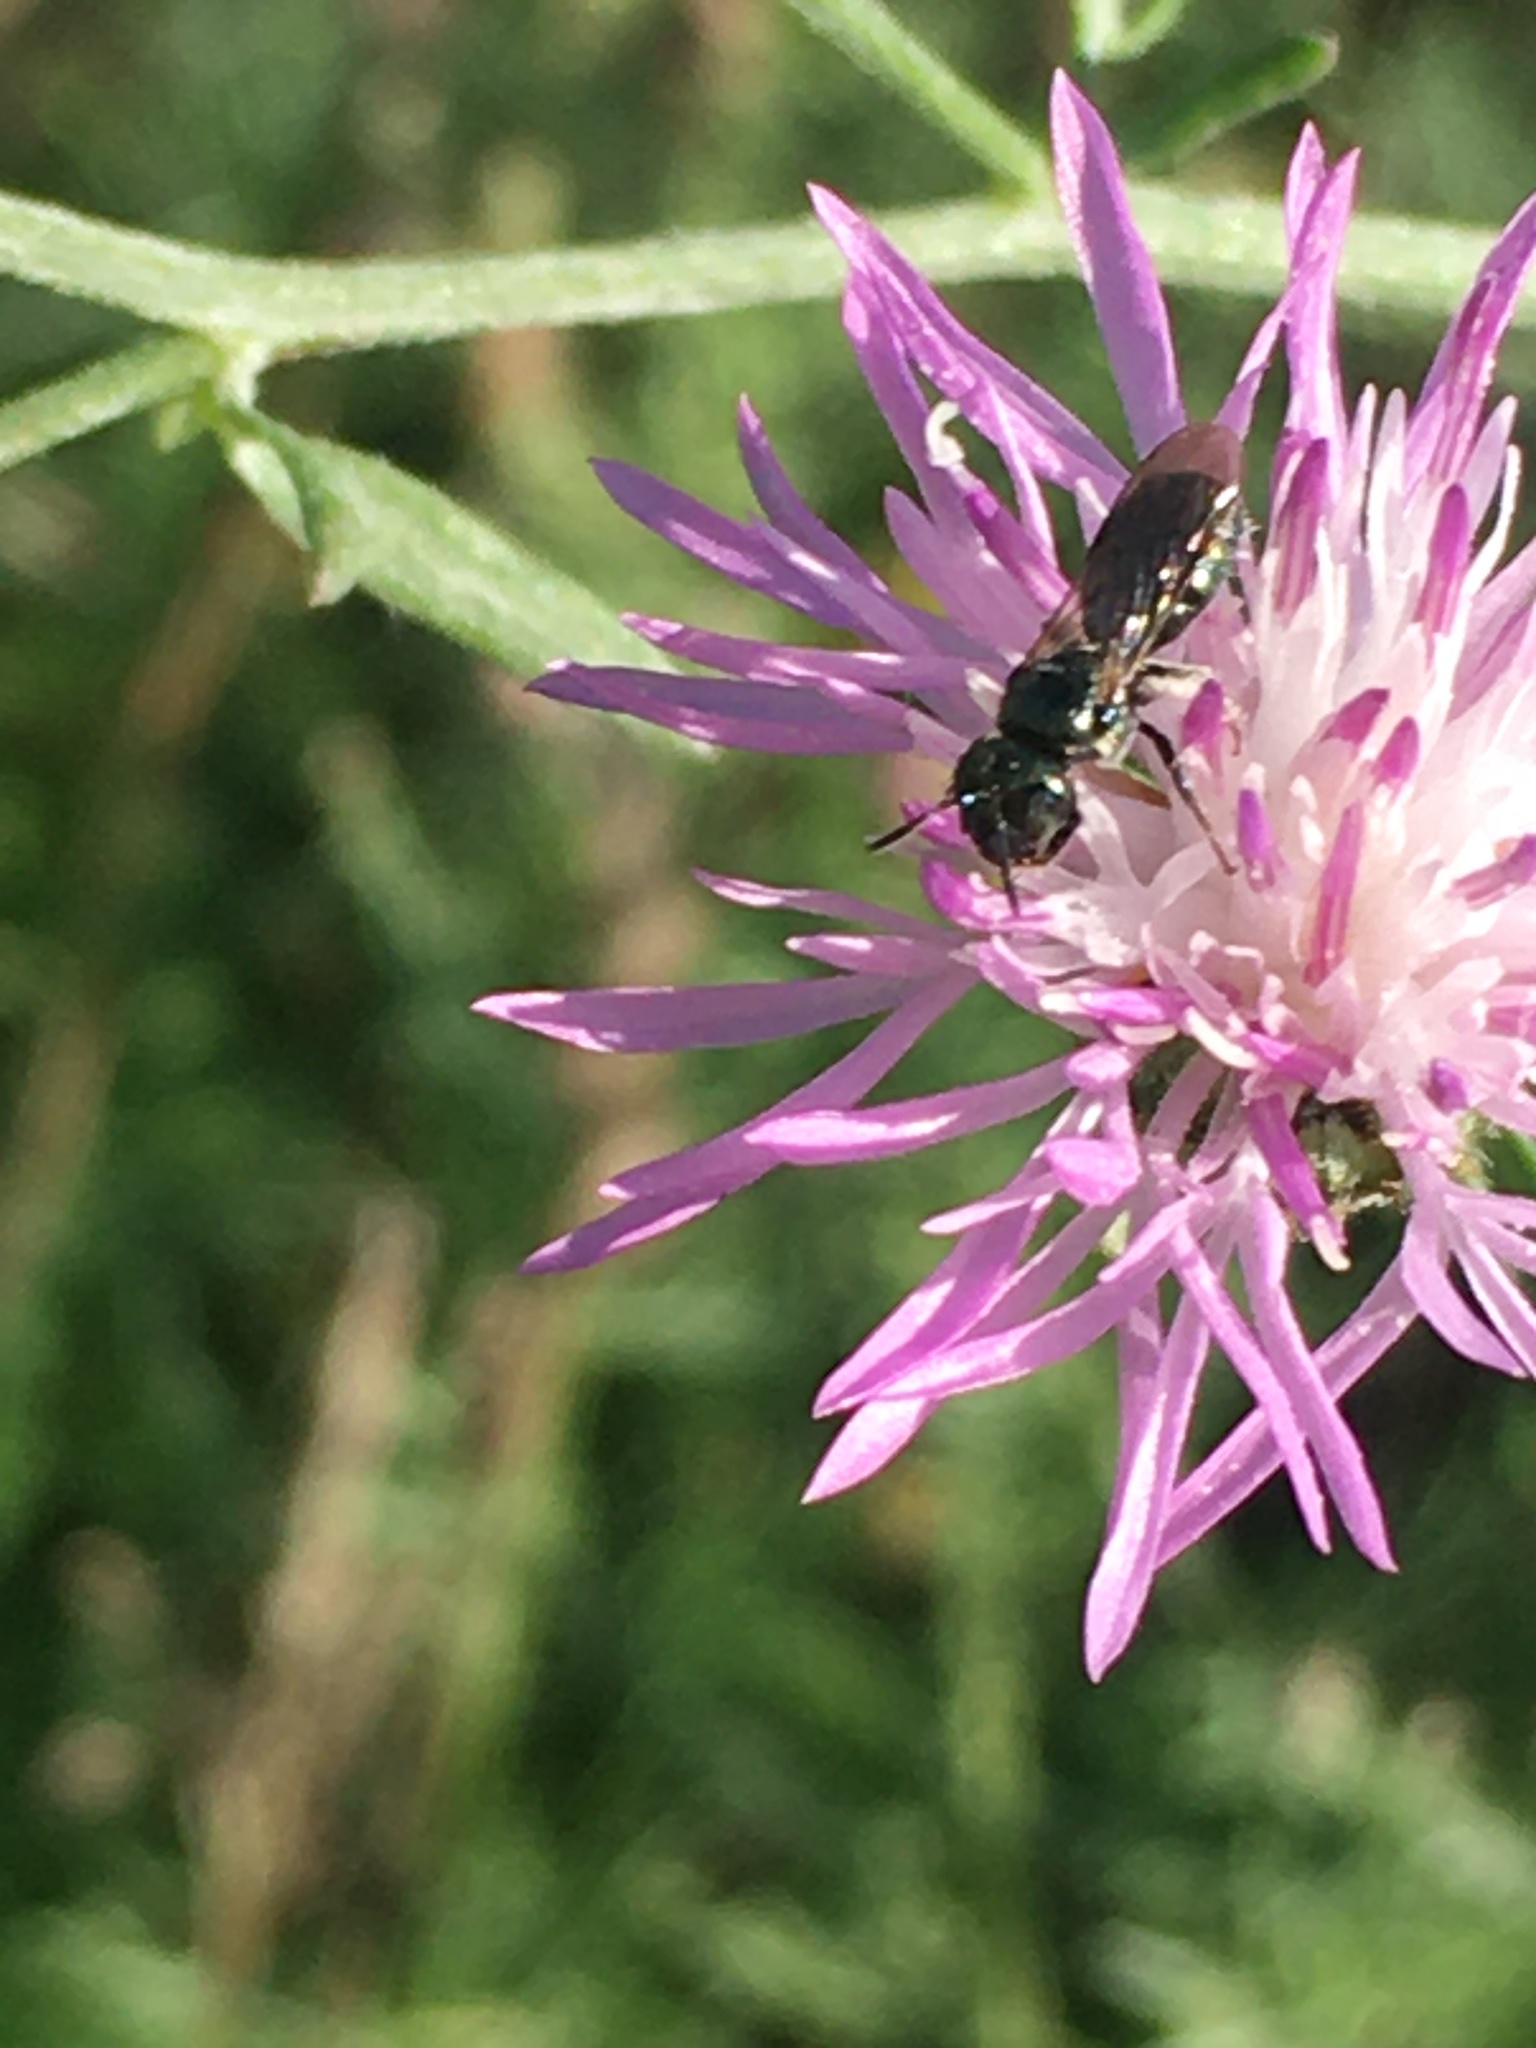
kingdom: Animalia
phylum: Arthropoda
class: Insecta
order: Hymenoptera
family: Apidae
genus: Zadontomerus
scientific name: Zadontomerus
